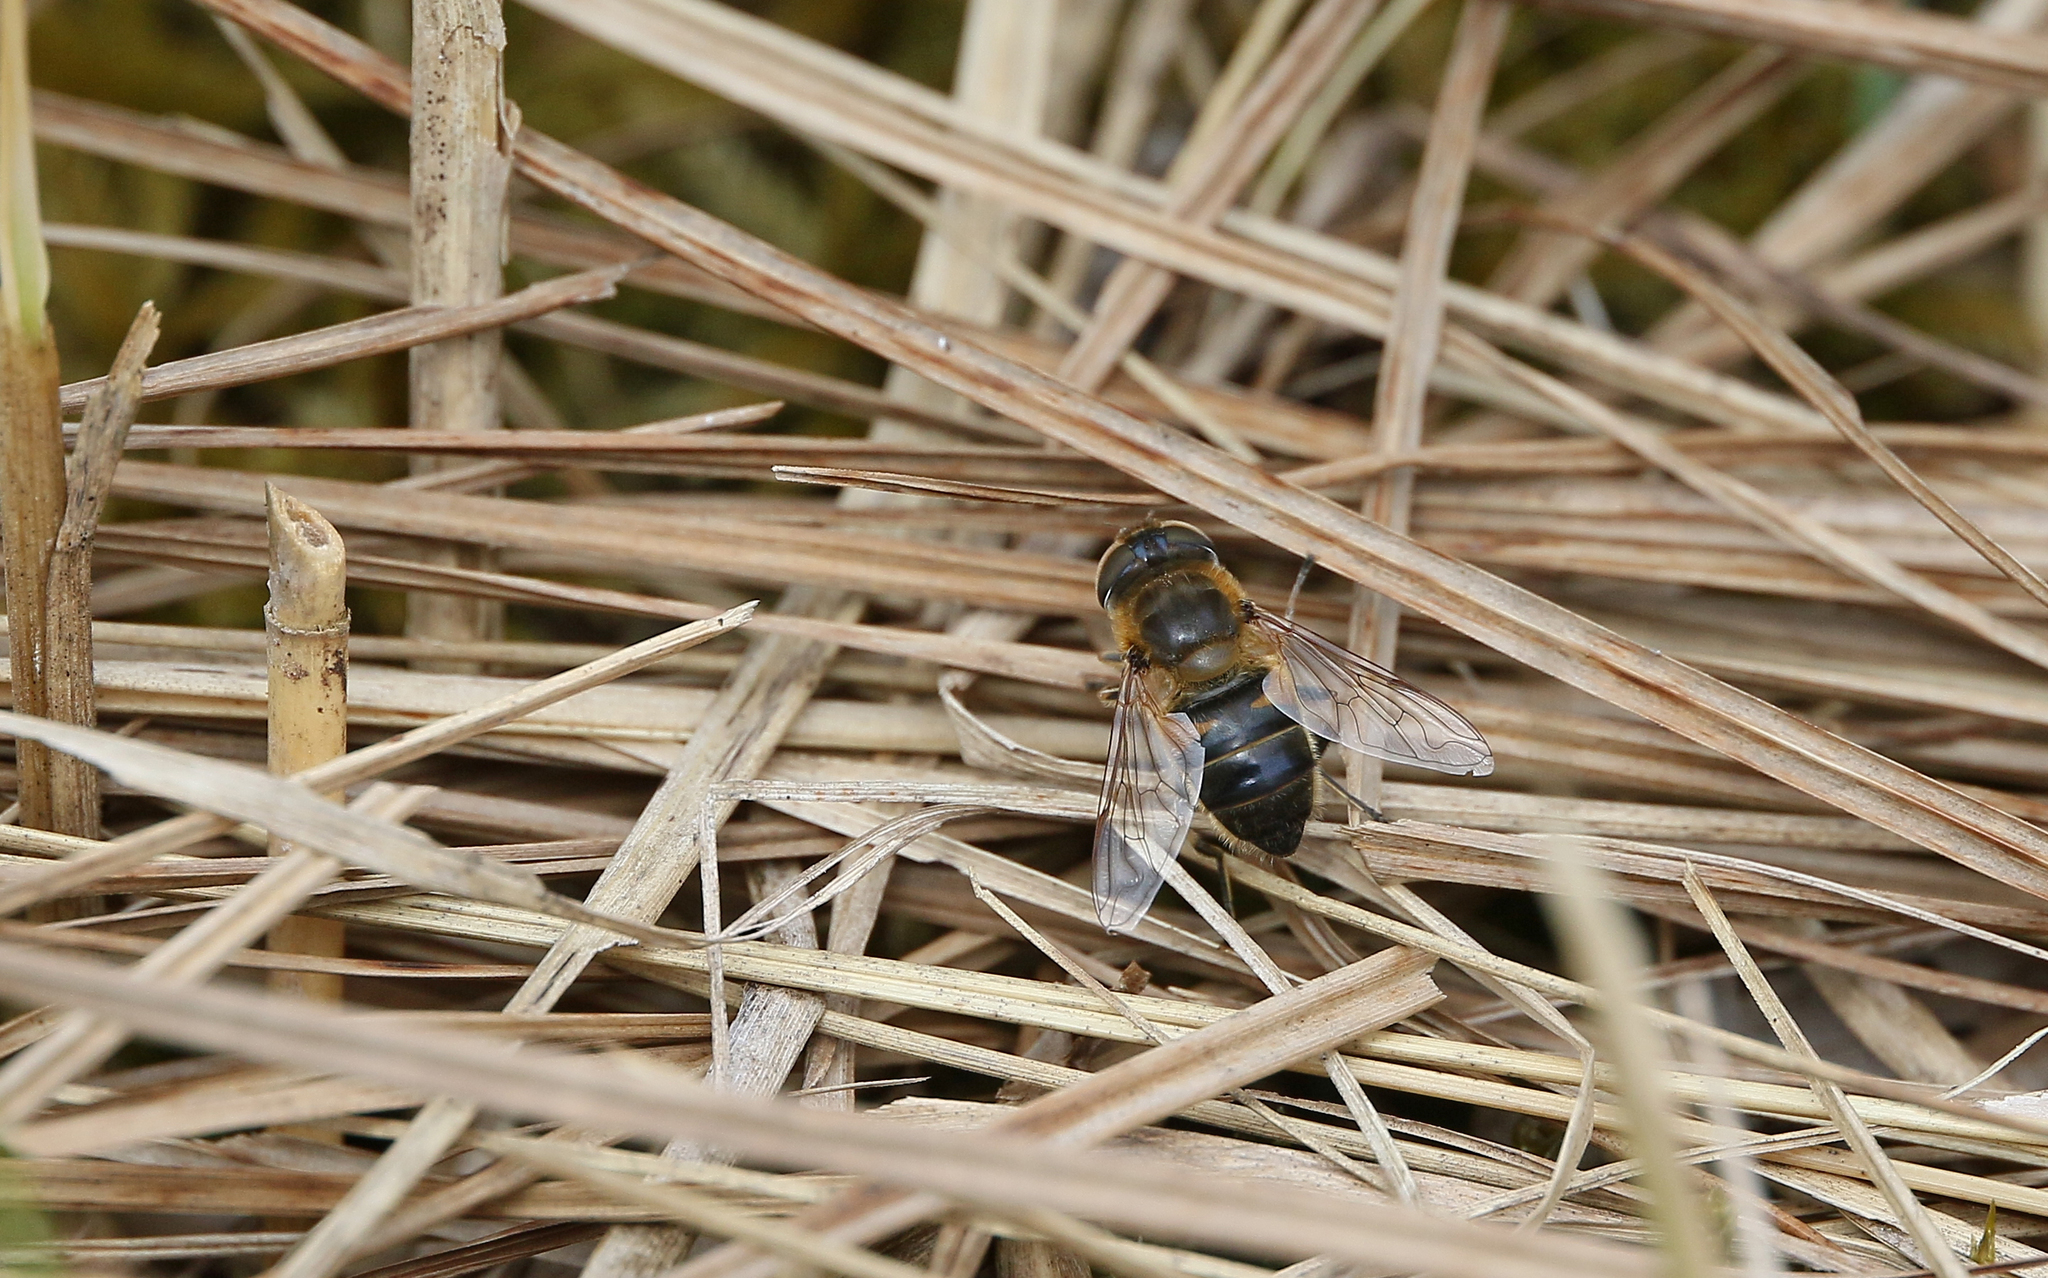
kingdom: Animalia
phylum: Arthropoda
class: Insecta
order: Diptera
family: Syrphidae
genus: Eristalis
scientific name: Eristalis pertinax
